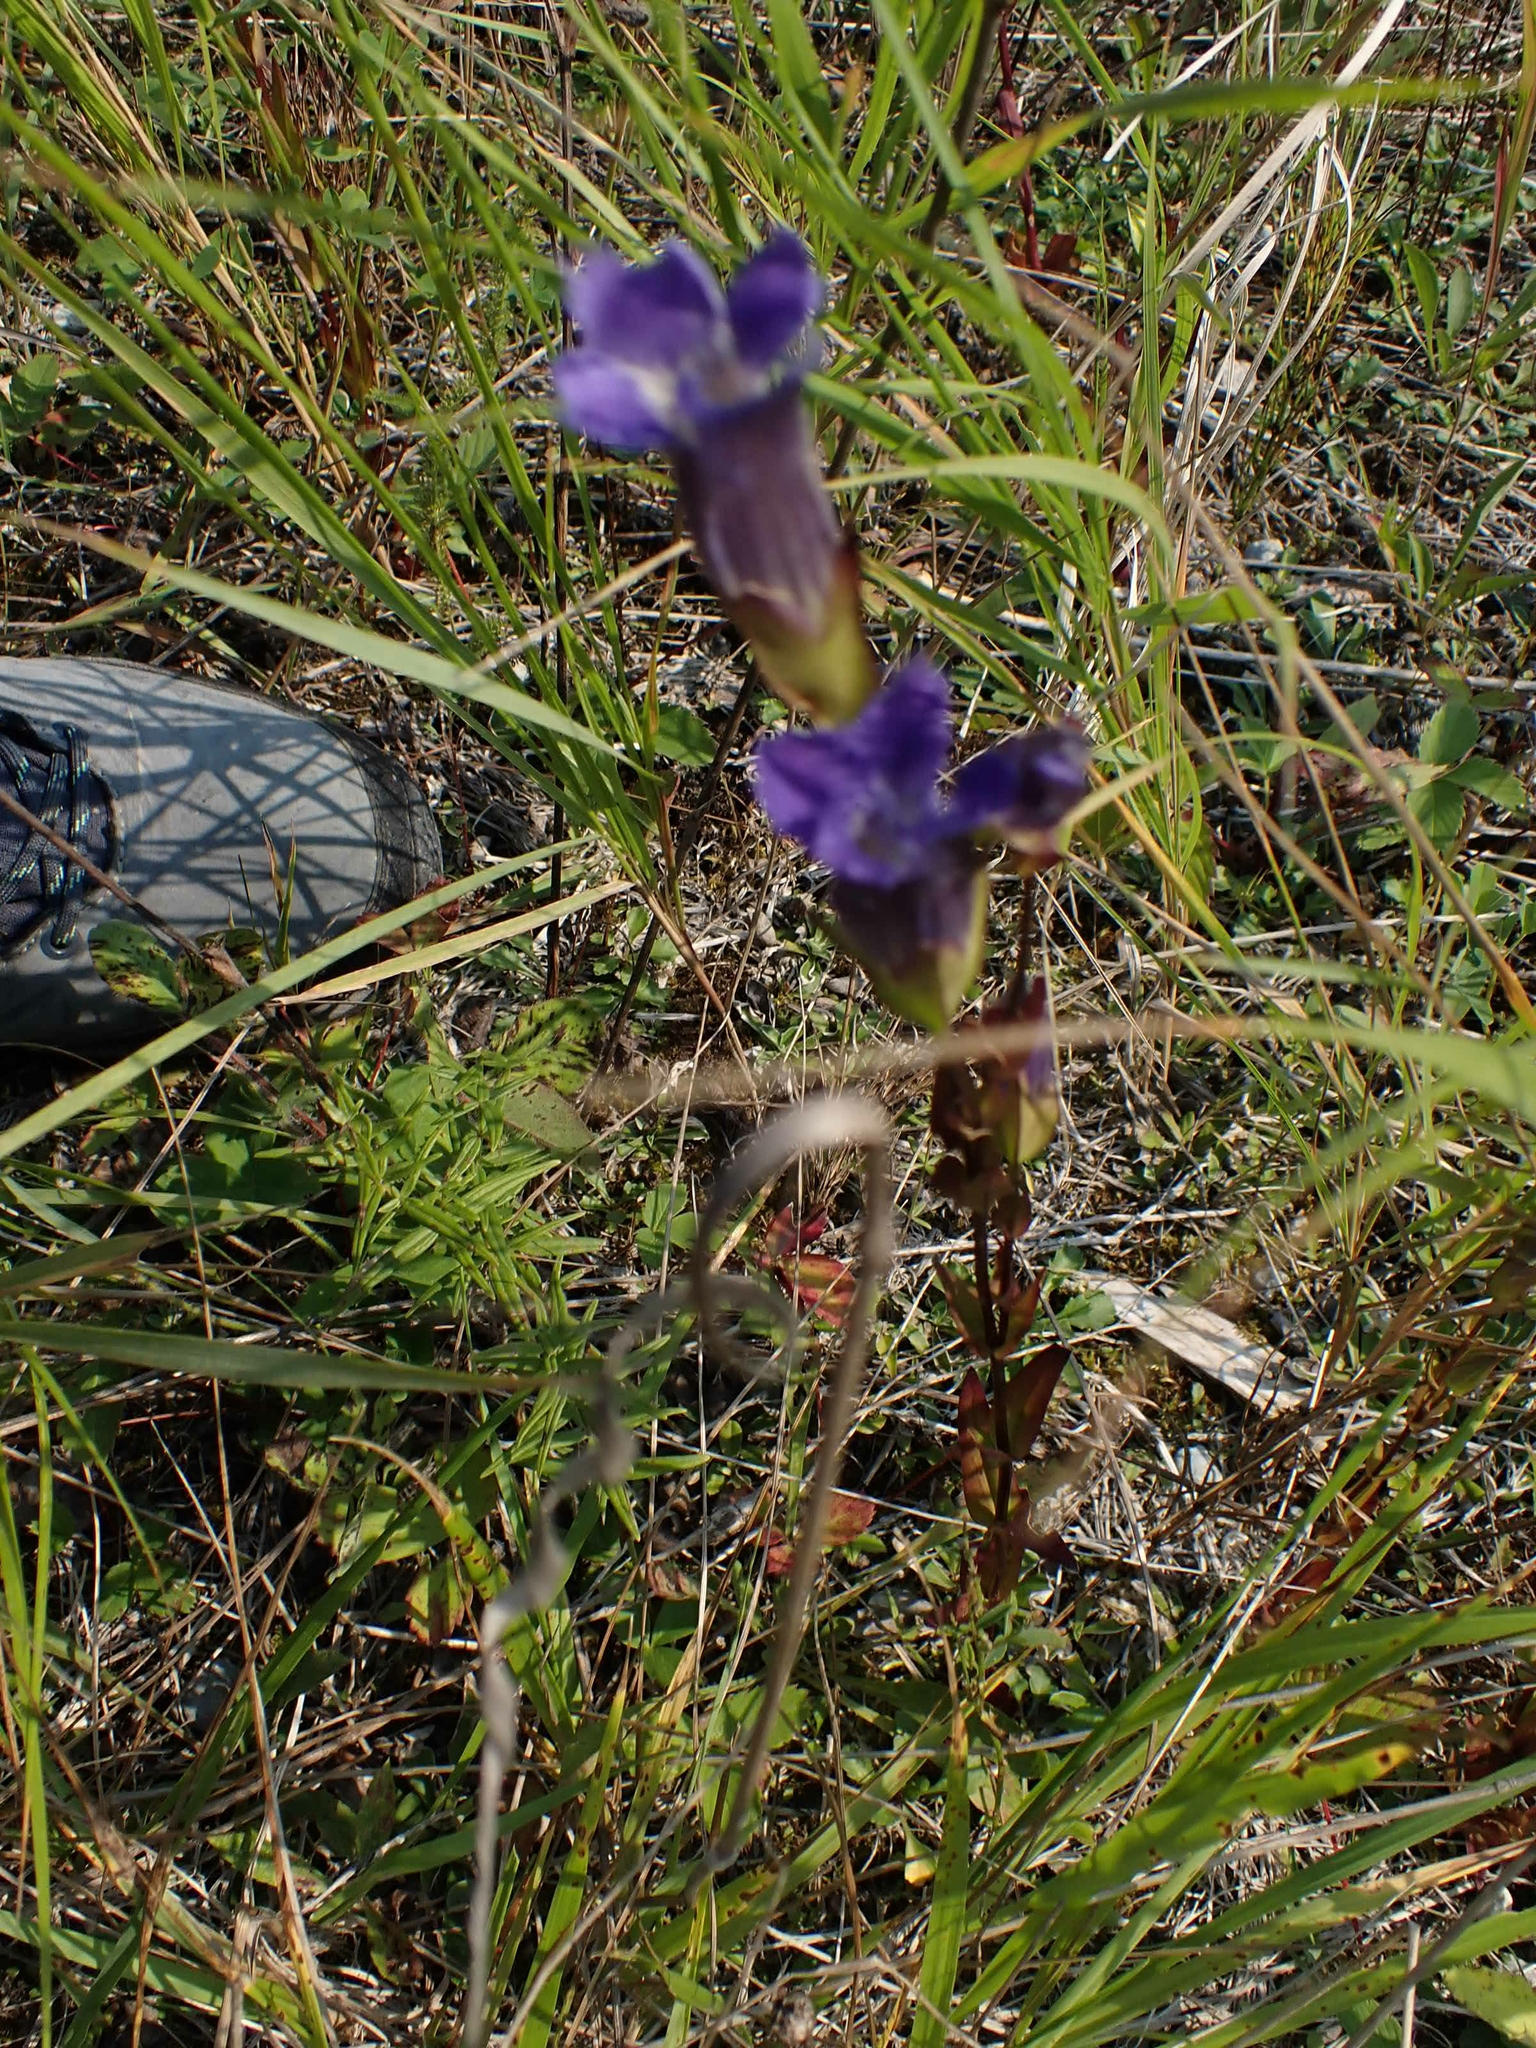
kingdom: Plantae
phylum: Tracheophyta
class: Magnoliopsida
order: Gentianales
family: Gentianaceae
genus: Gentianopsis
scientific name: Gentianopsis crinita
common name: Fringed-gentian
